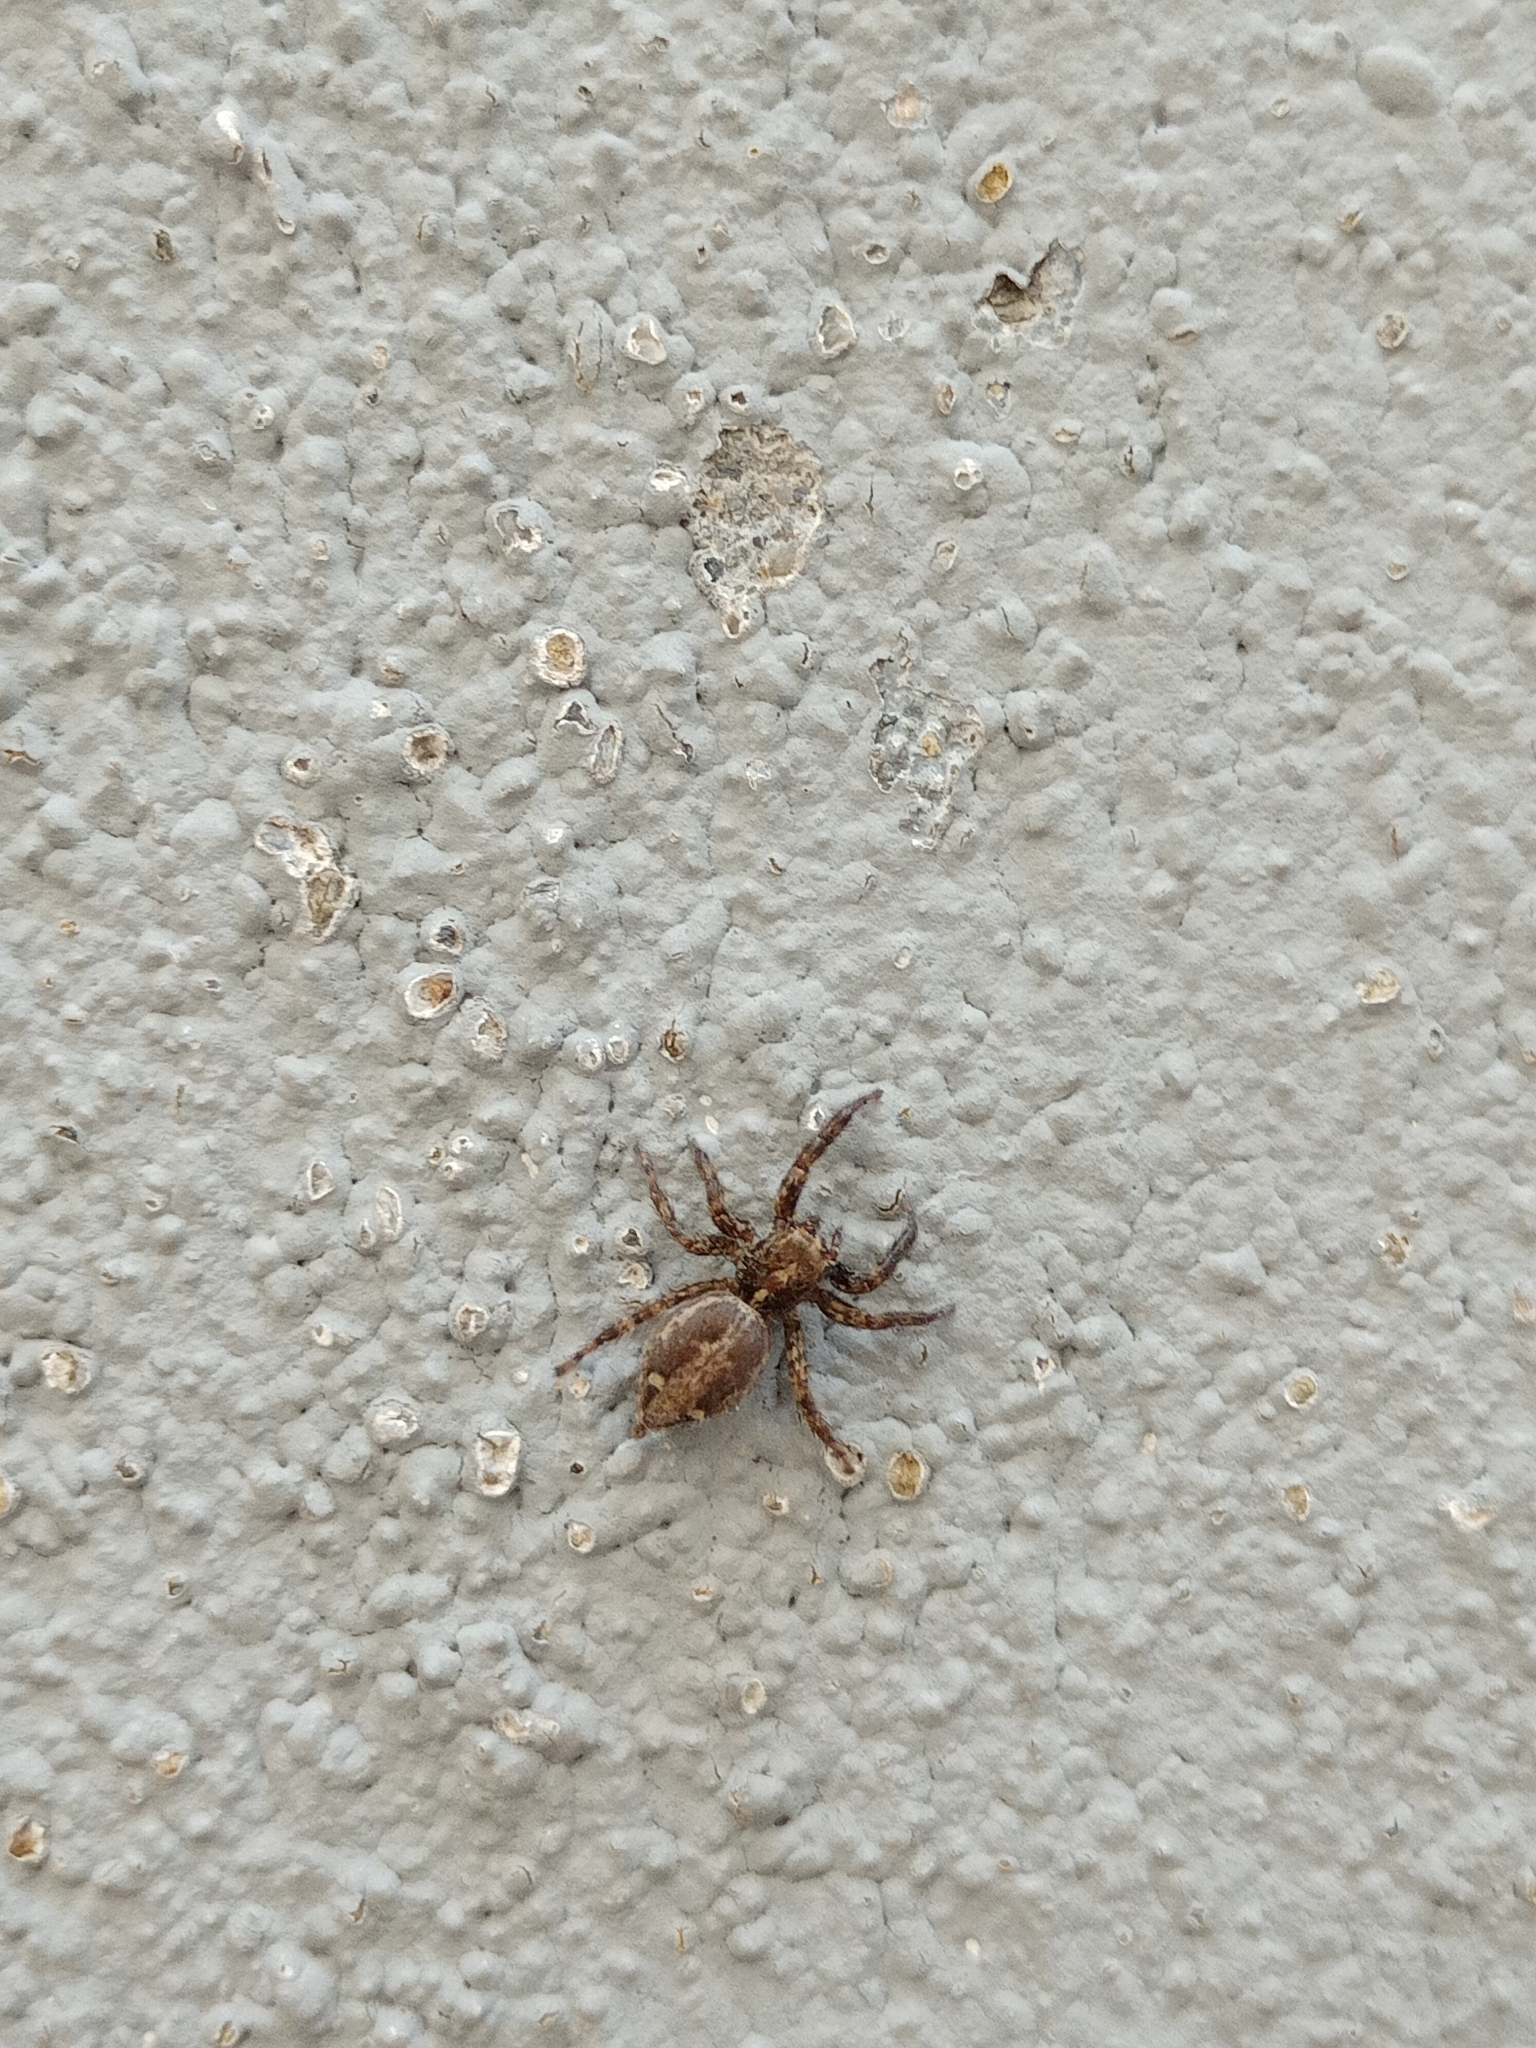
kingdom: Animalia
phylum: Arthropoda
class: Arachnida
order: Araneae
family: Salticidae
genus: Plexippus
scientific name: Plexippus paykulli
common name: Pantropical jumper
